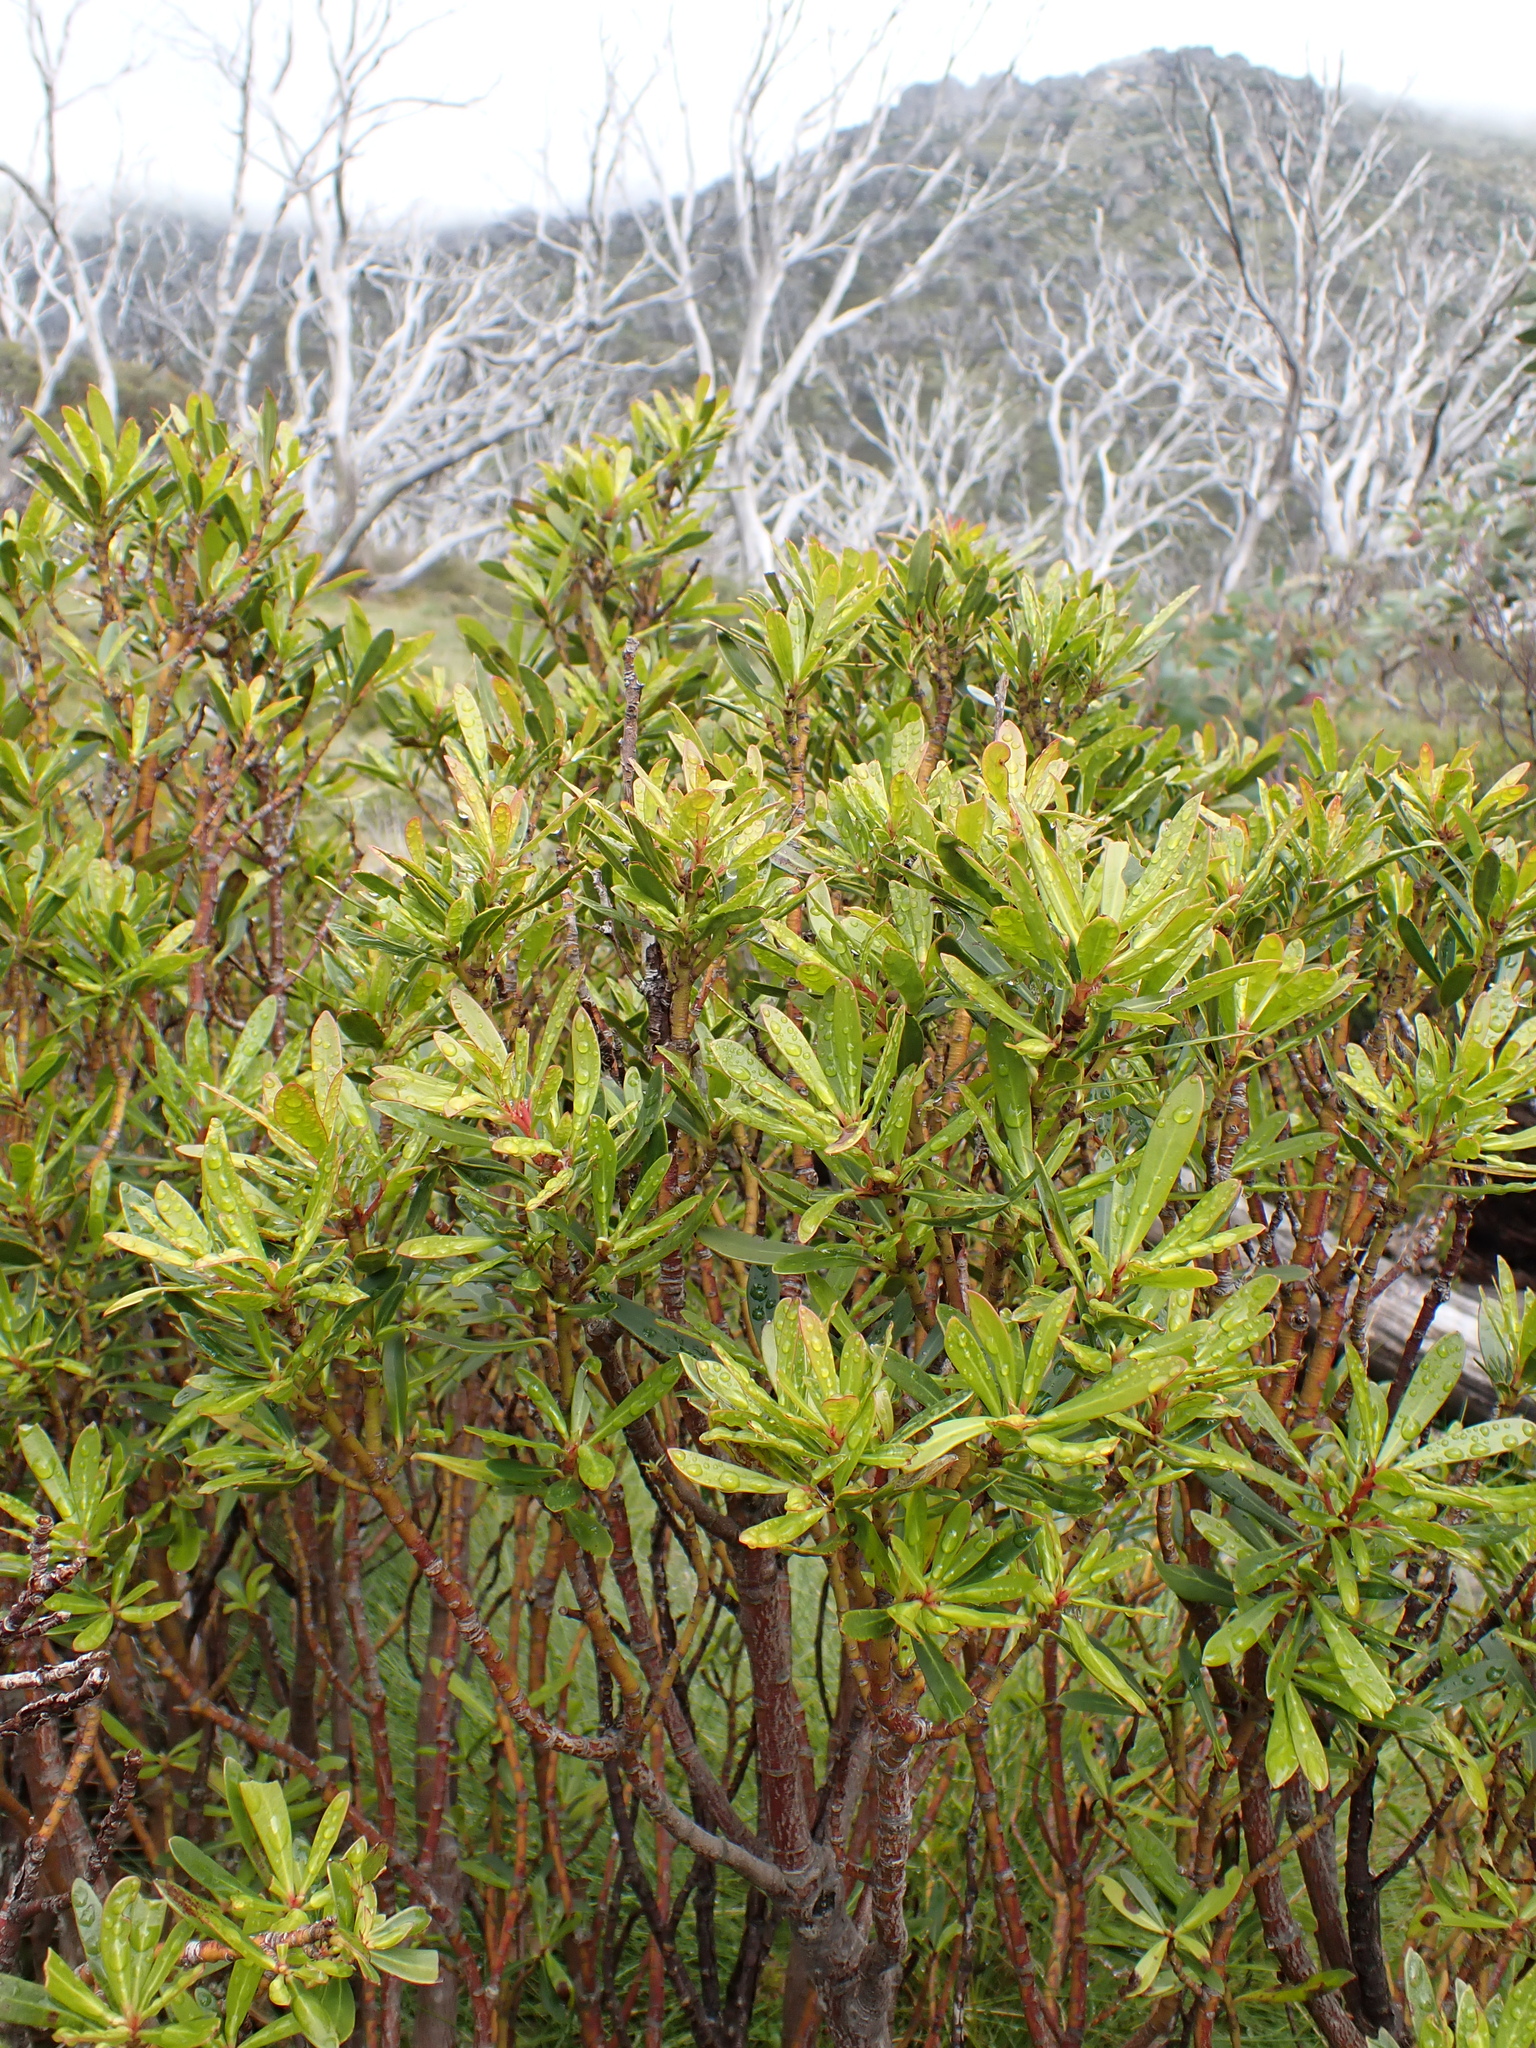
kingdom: Plantae
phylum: Tracheophyta
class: Magnoliopsida
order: Canellales
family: Winteraceae
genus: Drimys
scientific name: Drimys xerophila
